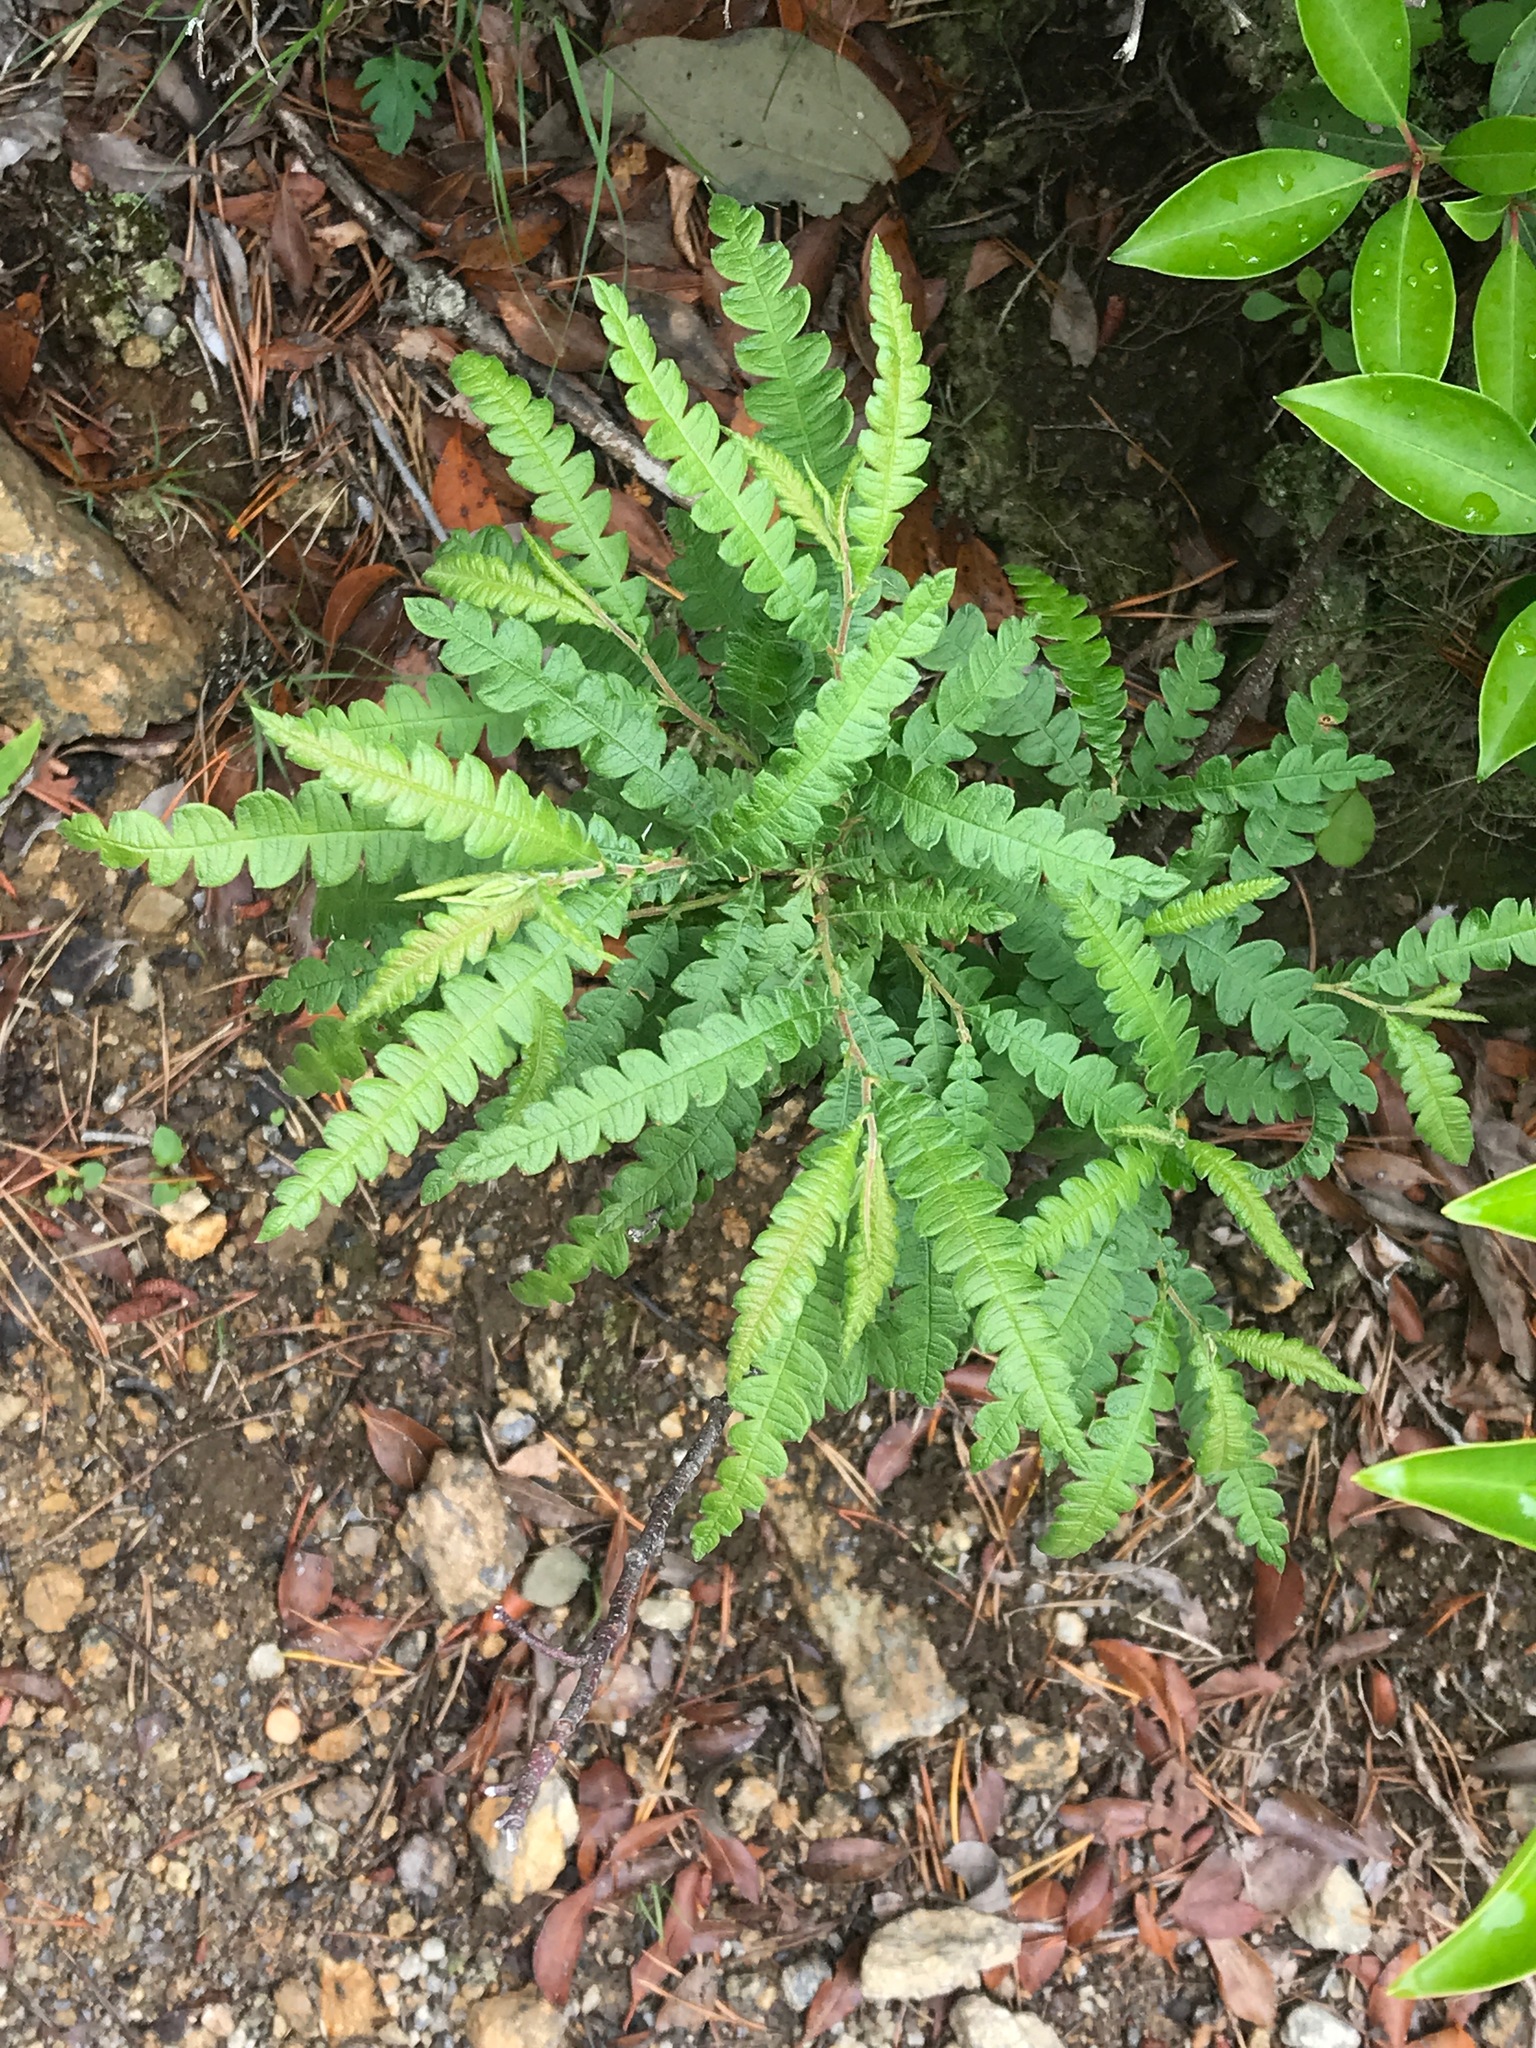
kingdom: Plantae
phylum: Tracheophyta
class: Magnoliopsida
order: Fagales
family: Myricaceae
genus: Comptonia
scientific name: Comptonia peregrina
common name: Sweet-fern
